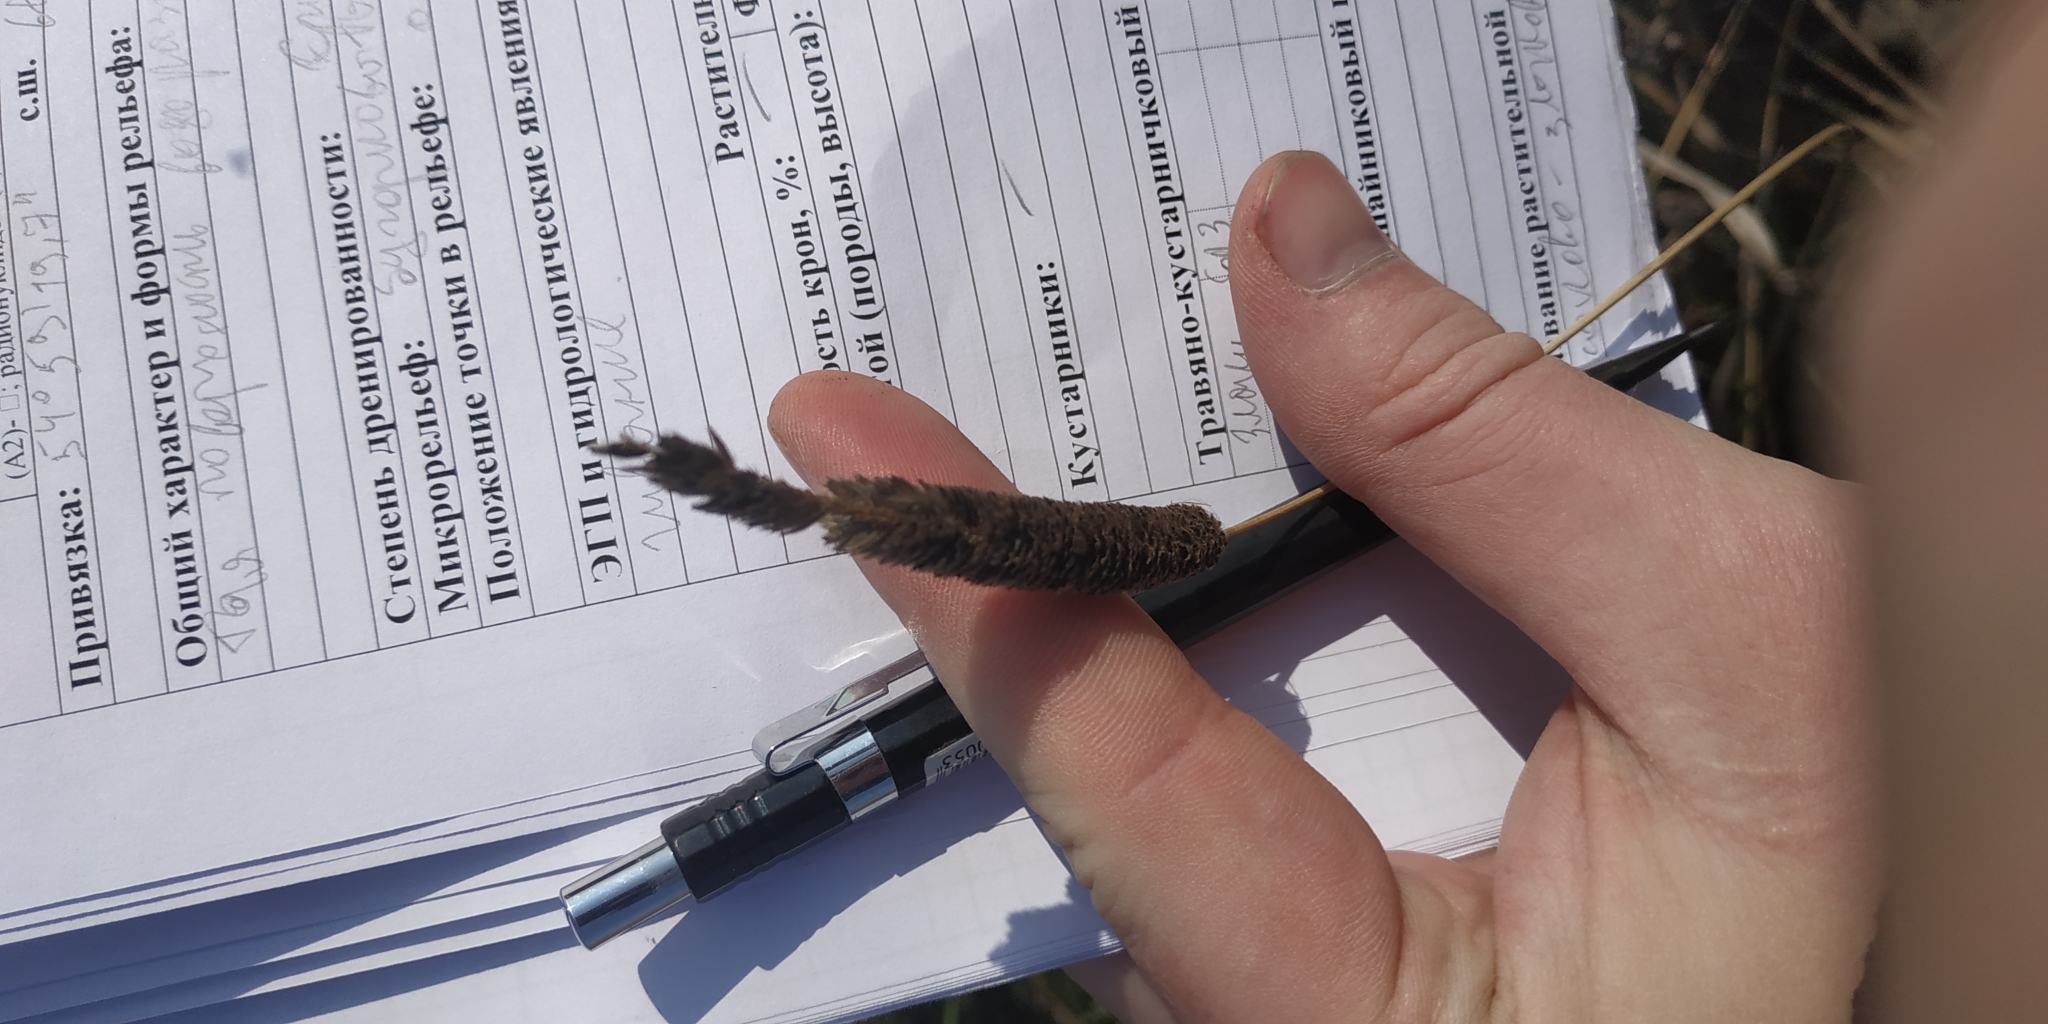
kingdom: Plantae
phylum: Tracheophyta
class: Liliopsida
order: Poales
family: Poaceae
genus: Alopecurus
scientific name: Alopecurus pratensis
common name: Meadow foxtail
